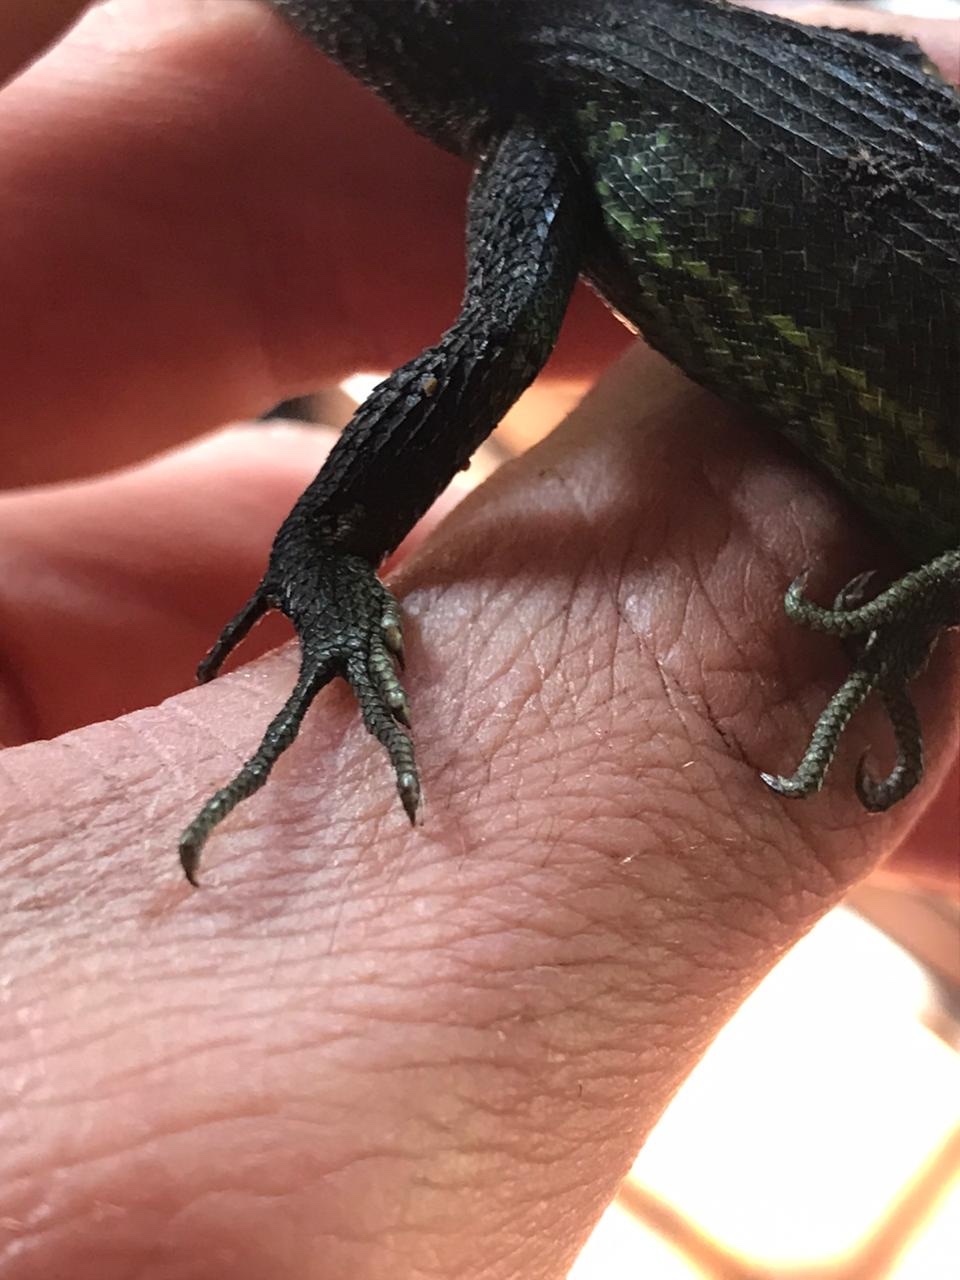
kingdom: Animalia
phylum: Chordata
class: Squamata
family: Tropiduridae
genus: Stenocercus
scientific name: Stenocercus trachycephalus
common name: Duméril's whorltail iguana
